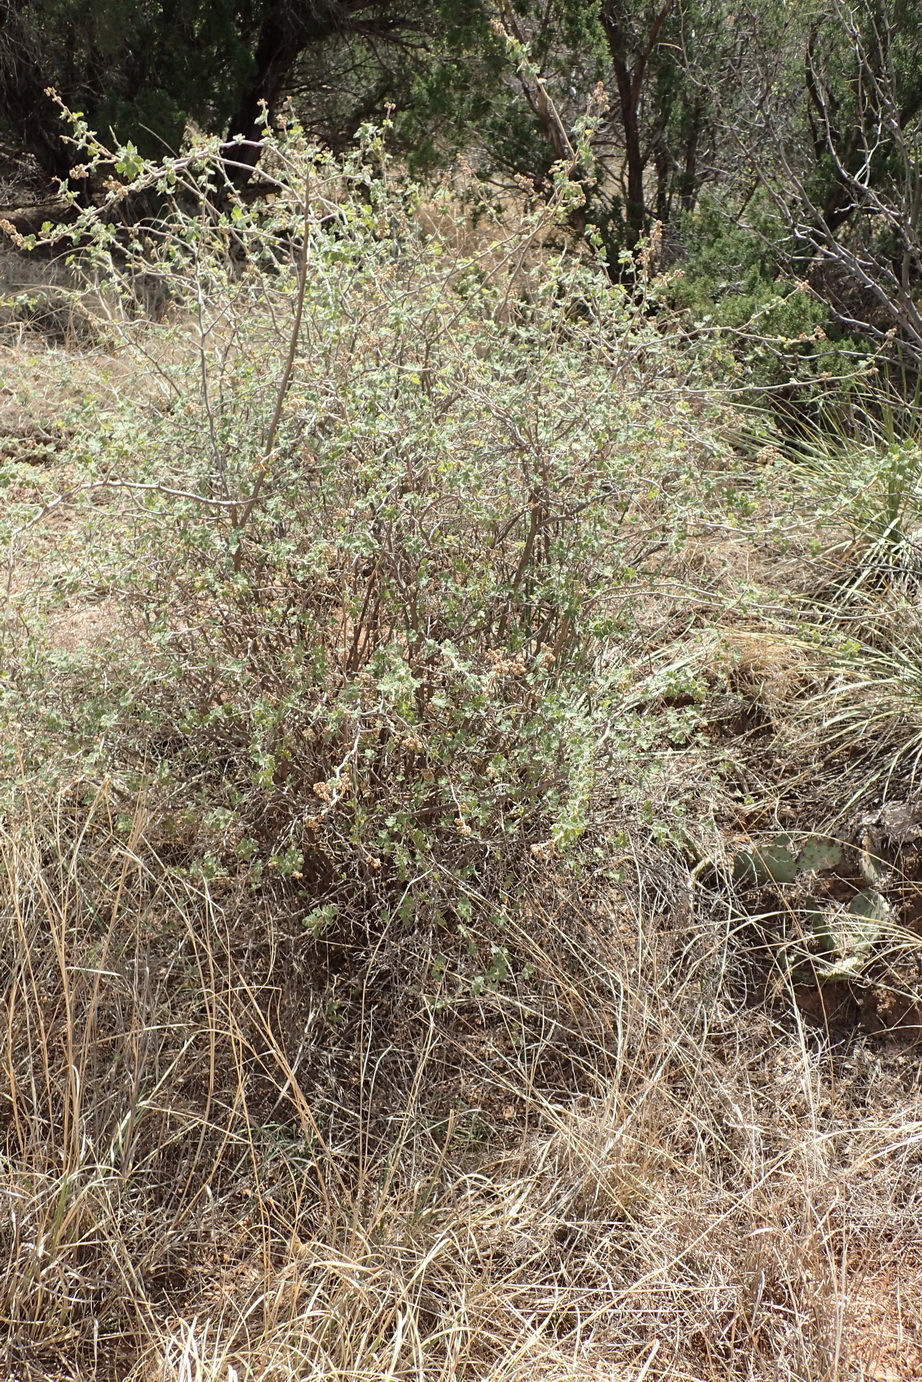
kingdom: Plantae
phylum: Tracheophyta
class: Magnoliopsida
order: Sapindales
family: Anacardiaceae
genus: Rhus
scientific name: Rhus aromatica
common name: Aromatic sumac
